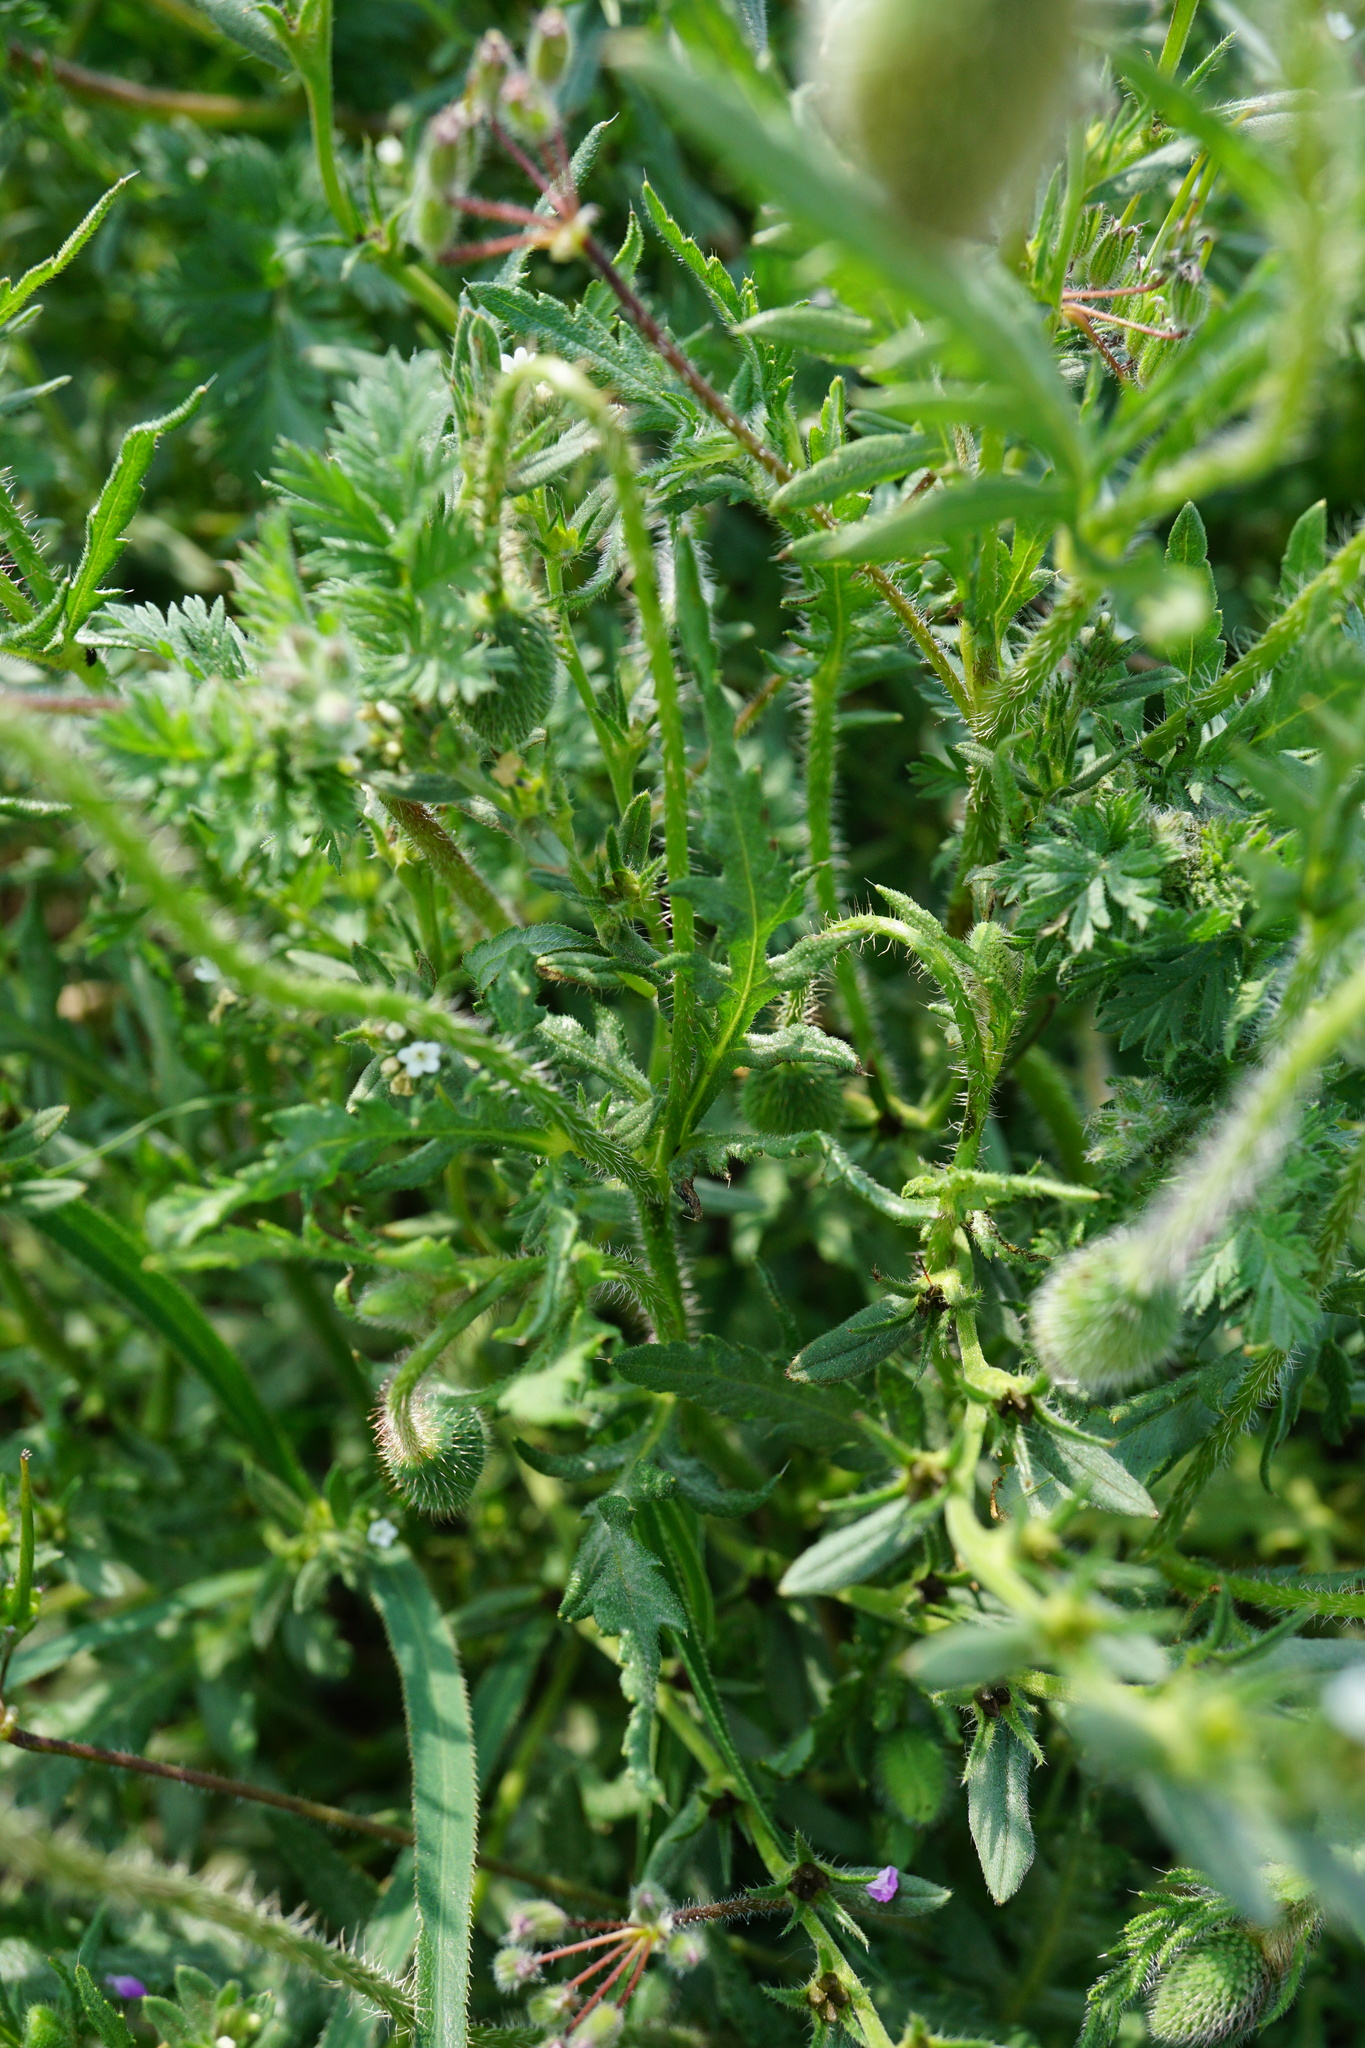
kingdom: Plantae
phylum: Tracheophyta
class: Magnoliopsida
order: Ranunculales
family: Papaveraceae
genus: Papaver
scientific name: Papaver rhoeas
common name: Corn poppy
